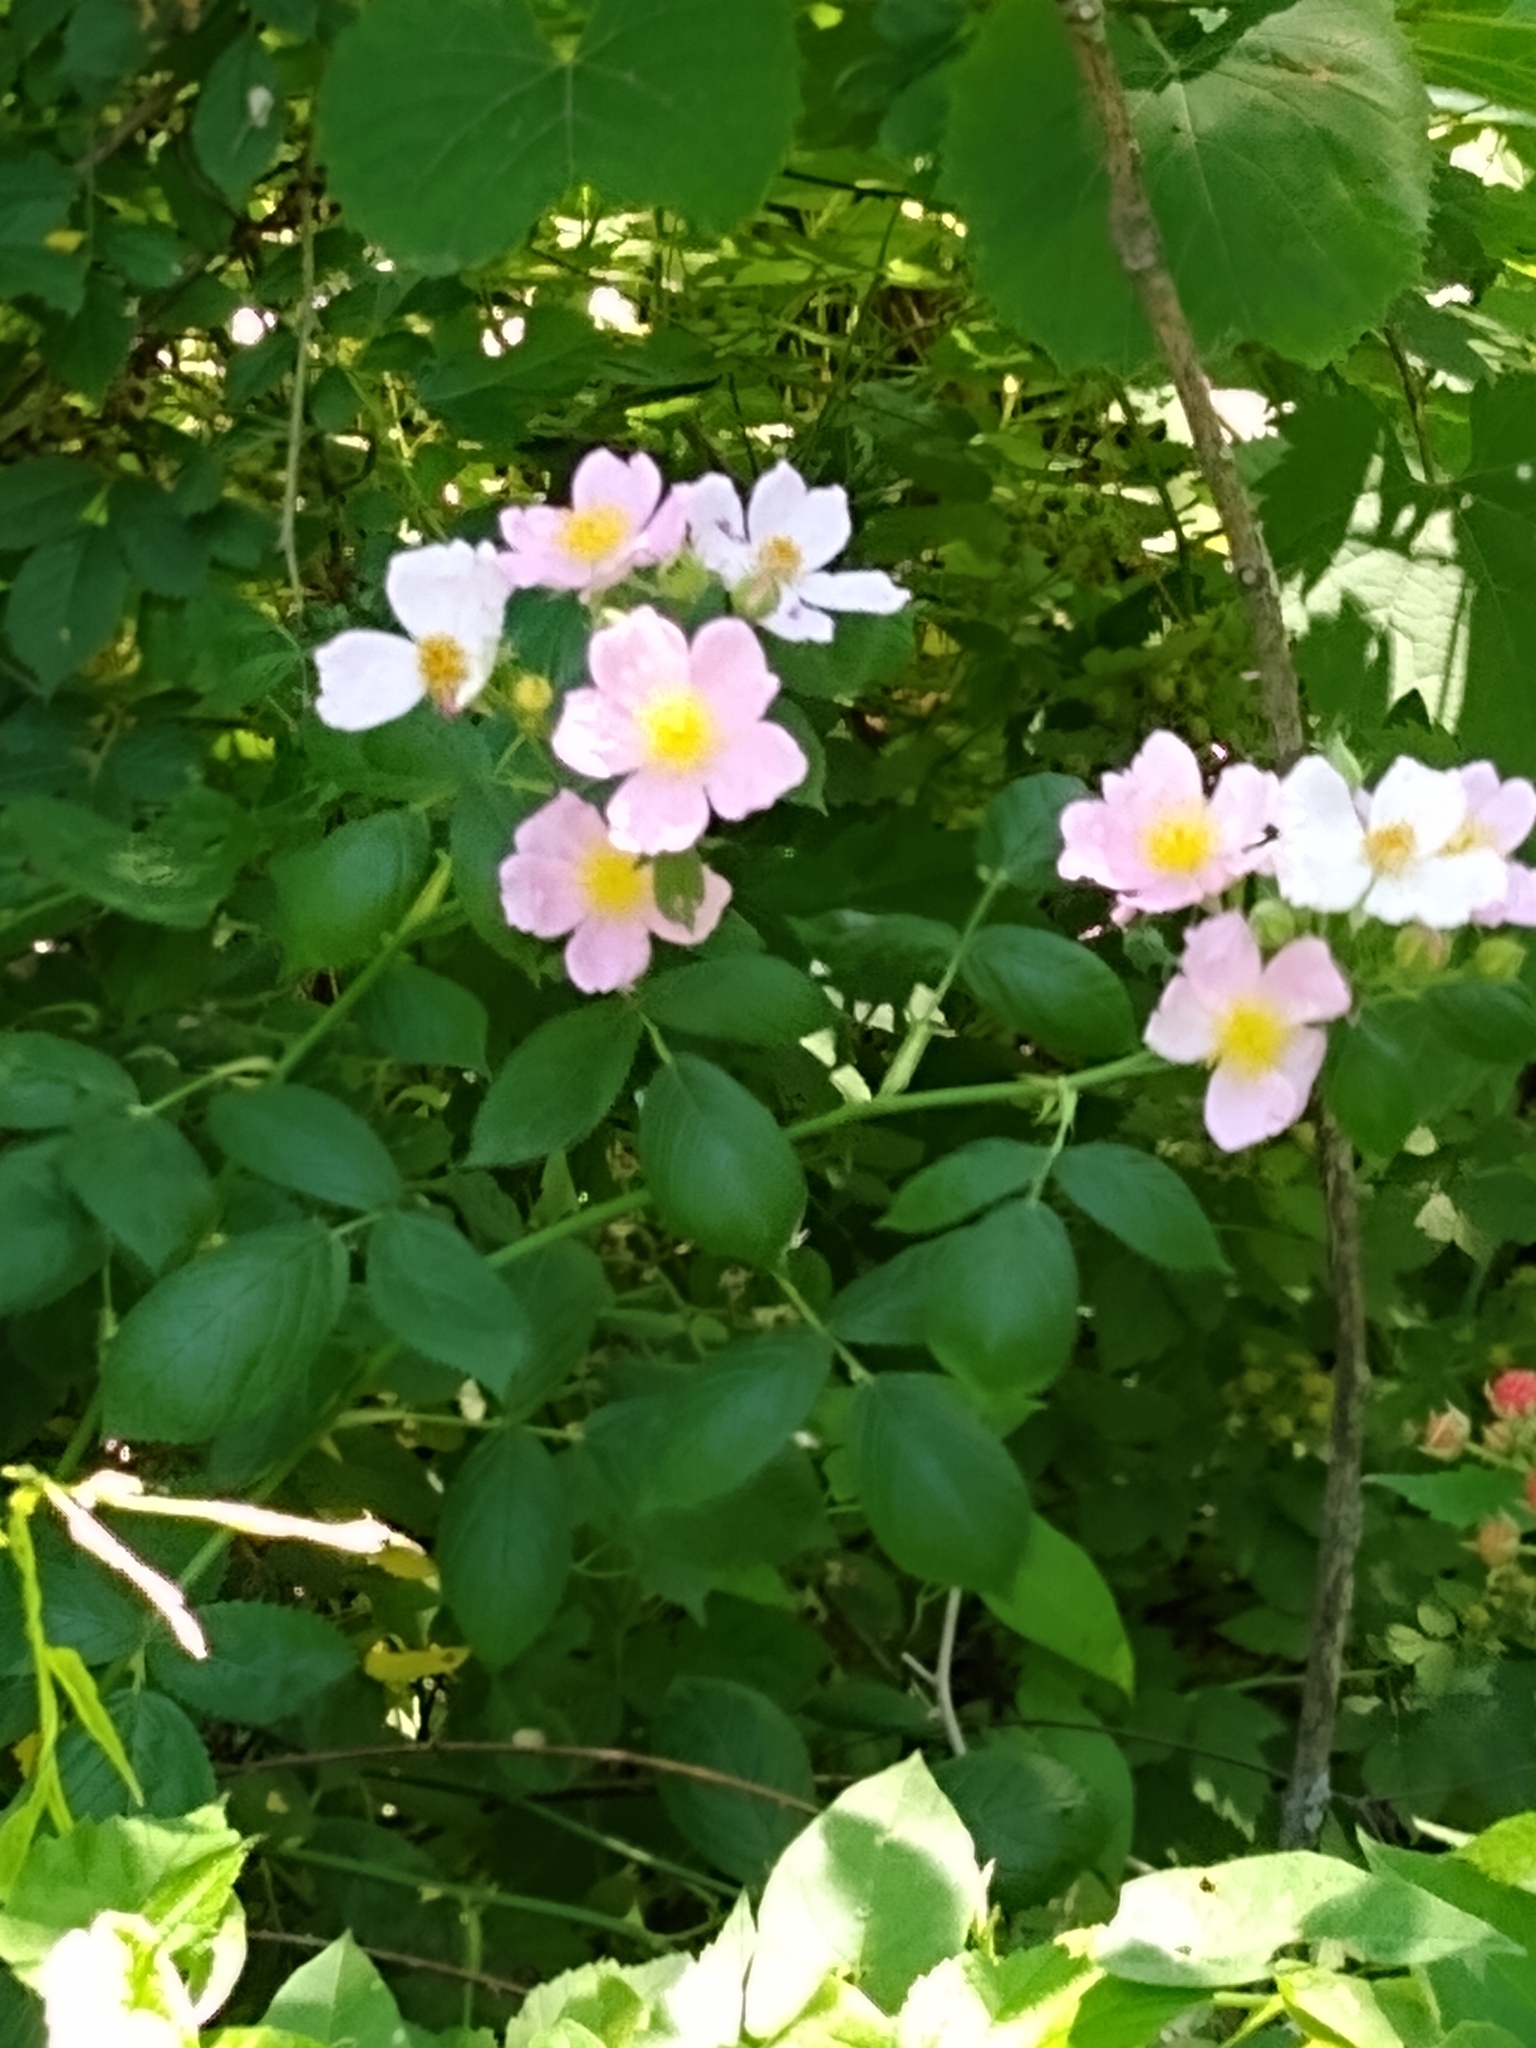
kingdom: Plantae
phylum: Tracheophyta
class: Magnoliopsida
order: Rosales
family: Rosaceae
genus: Rosa
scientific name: Rosa setigera
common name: Prairie rose
